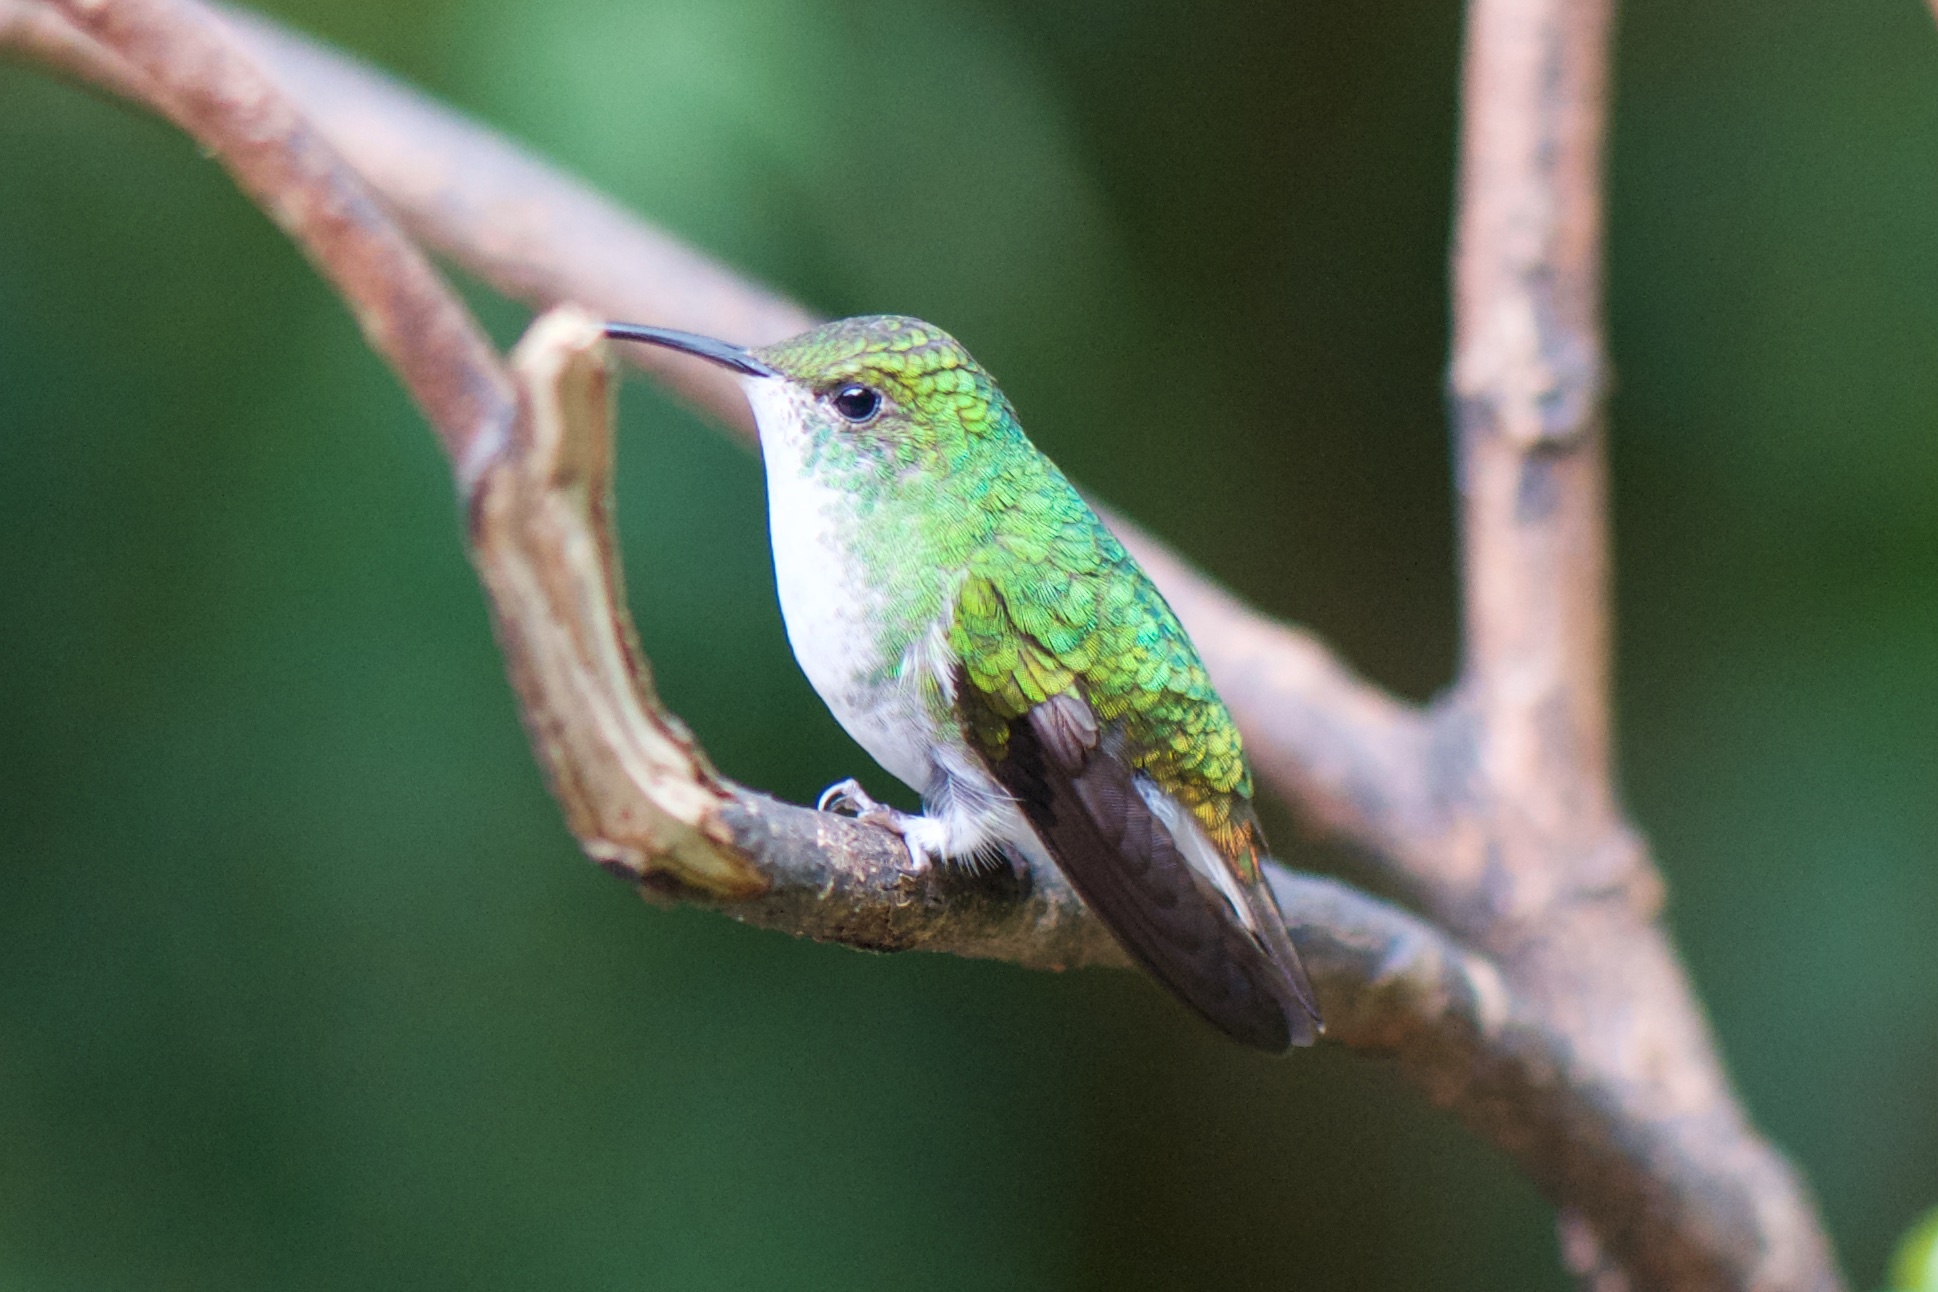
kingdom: Animalia
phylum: Chordata
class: Aves
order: Apodiformes
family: Trochilidae
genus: Microchera
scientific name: Microchera cupreiceps
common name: Coppery-headed emerald
